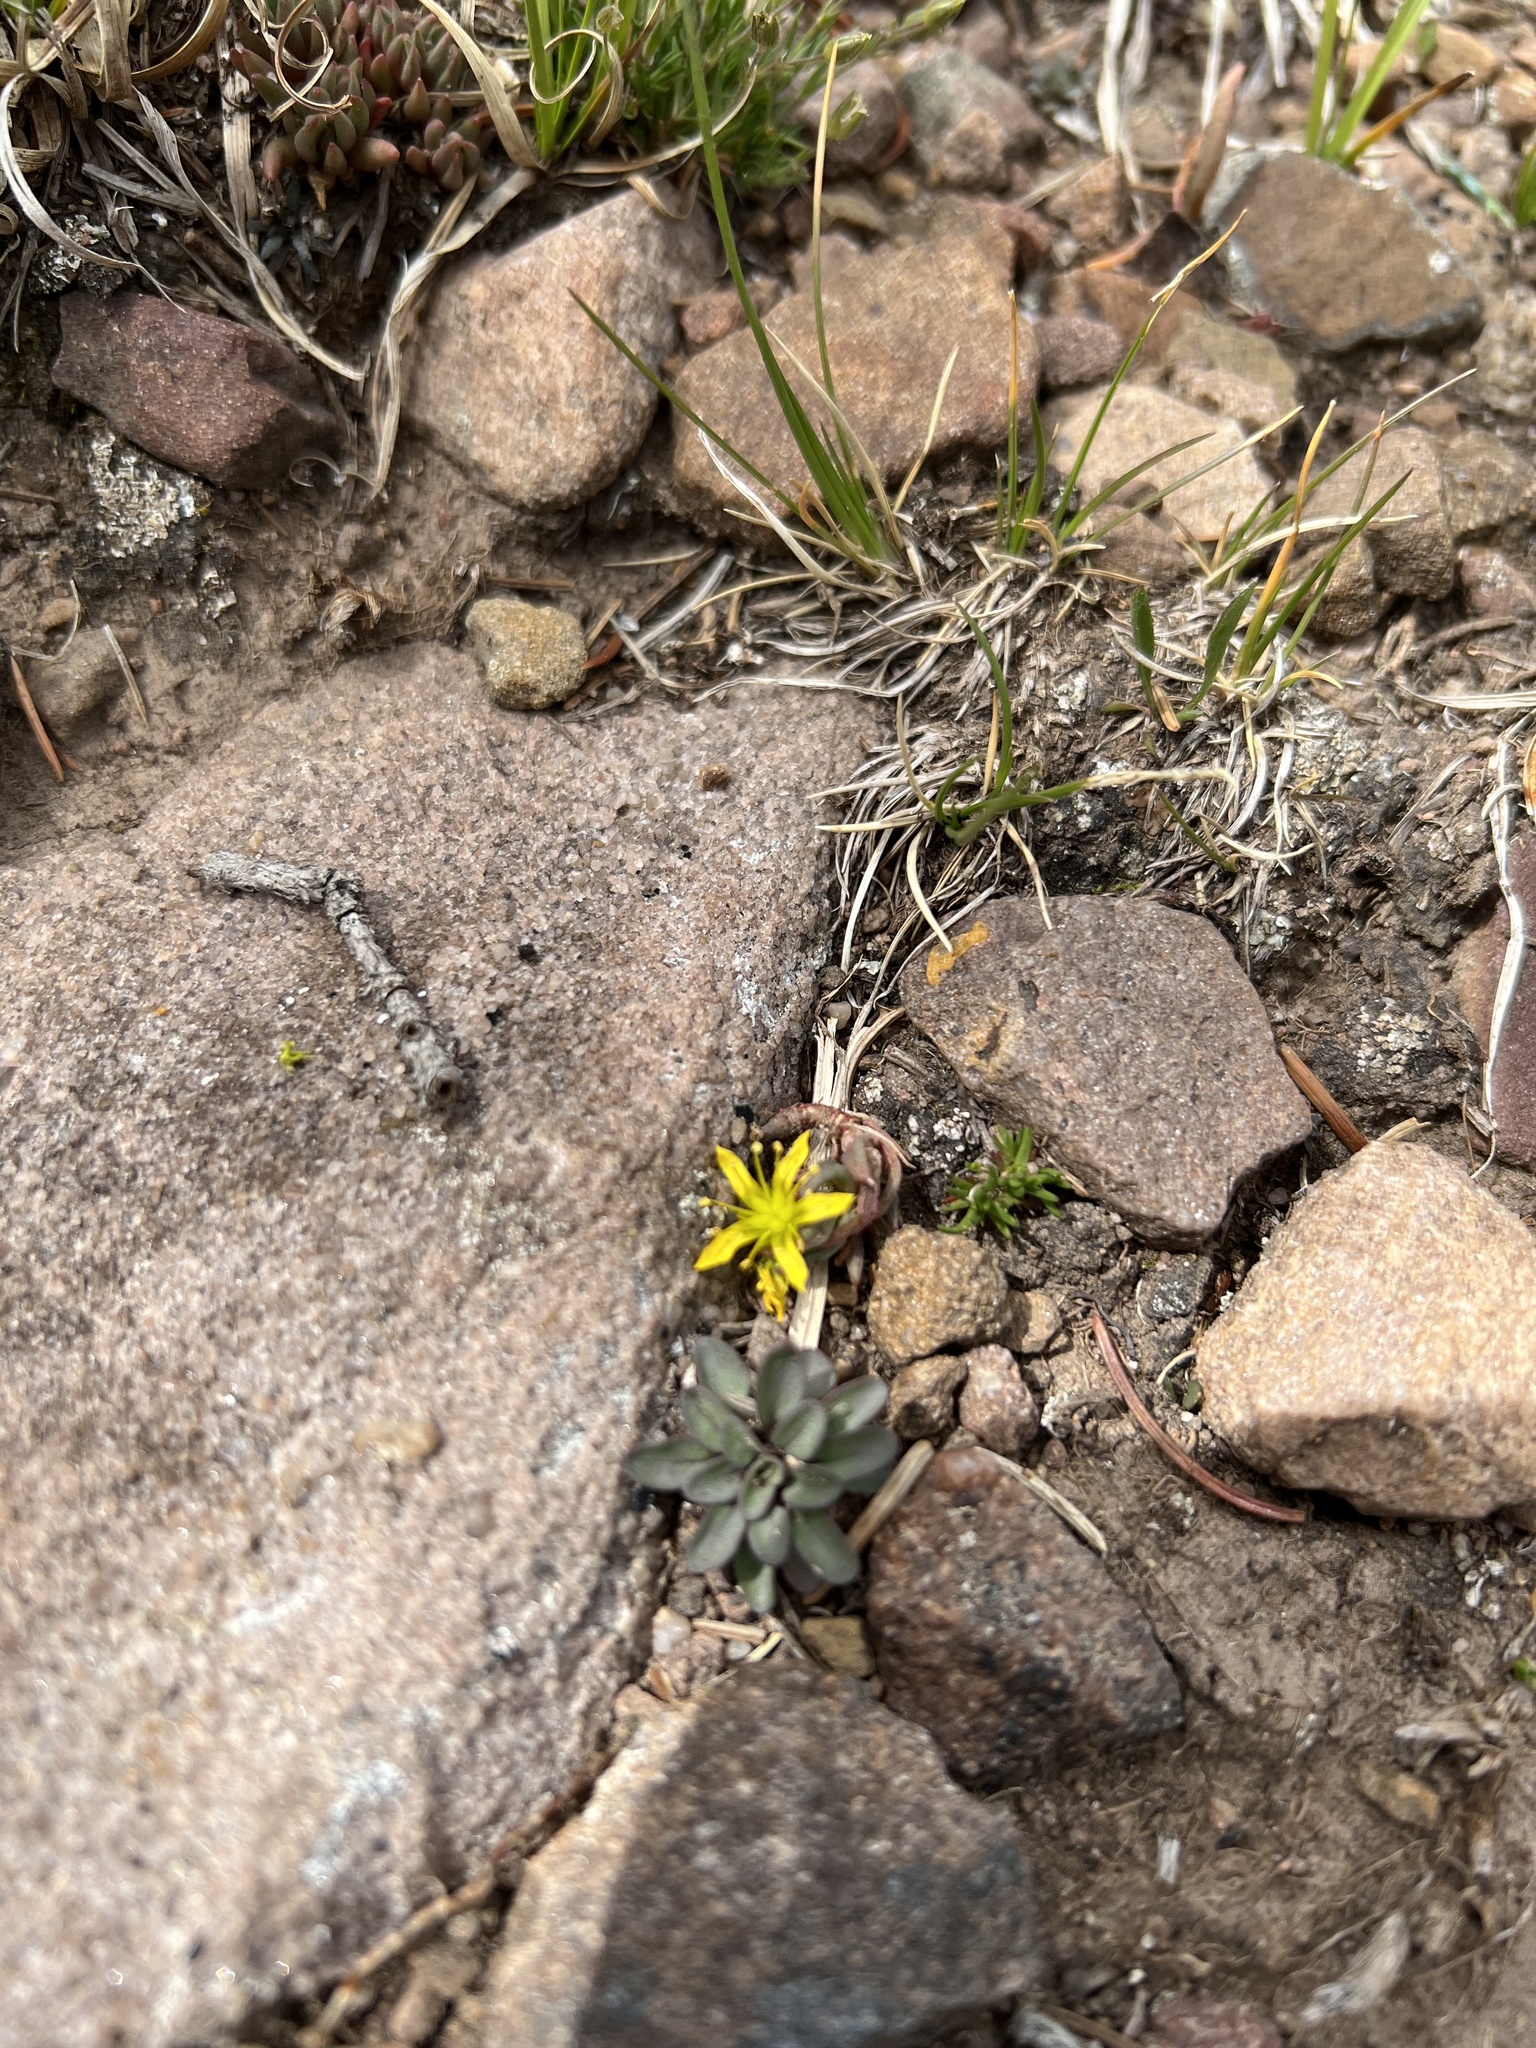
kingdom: Plantae
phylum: Tracheophyta
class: Magnoliopsida
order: Saxifragales
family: Crassulaceae
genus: Sedum
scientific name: Sedum lanceolatum
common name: Common stonecrop
